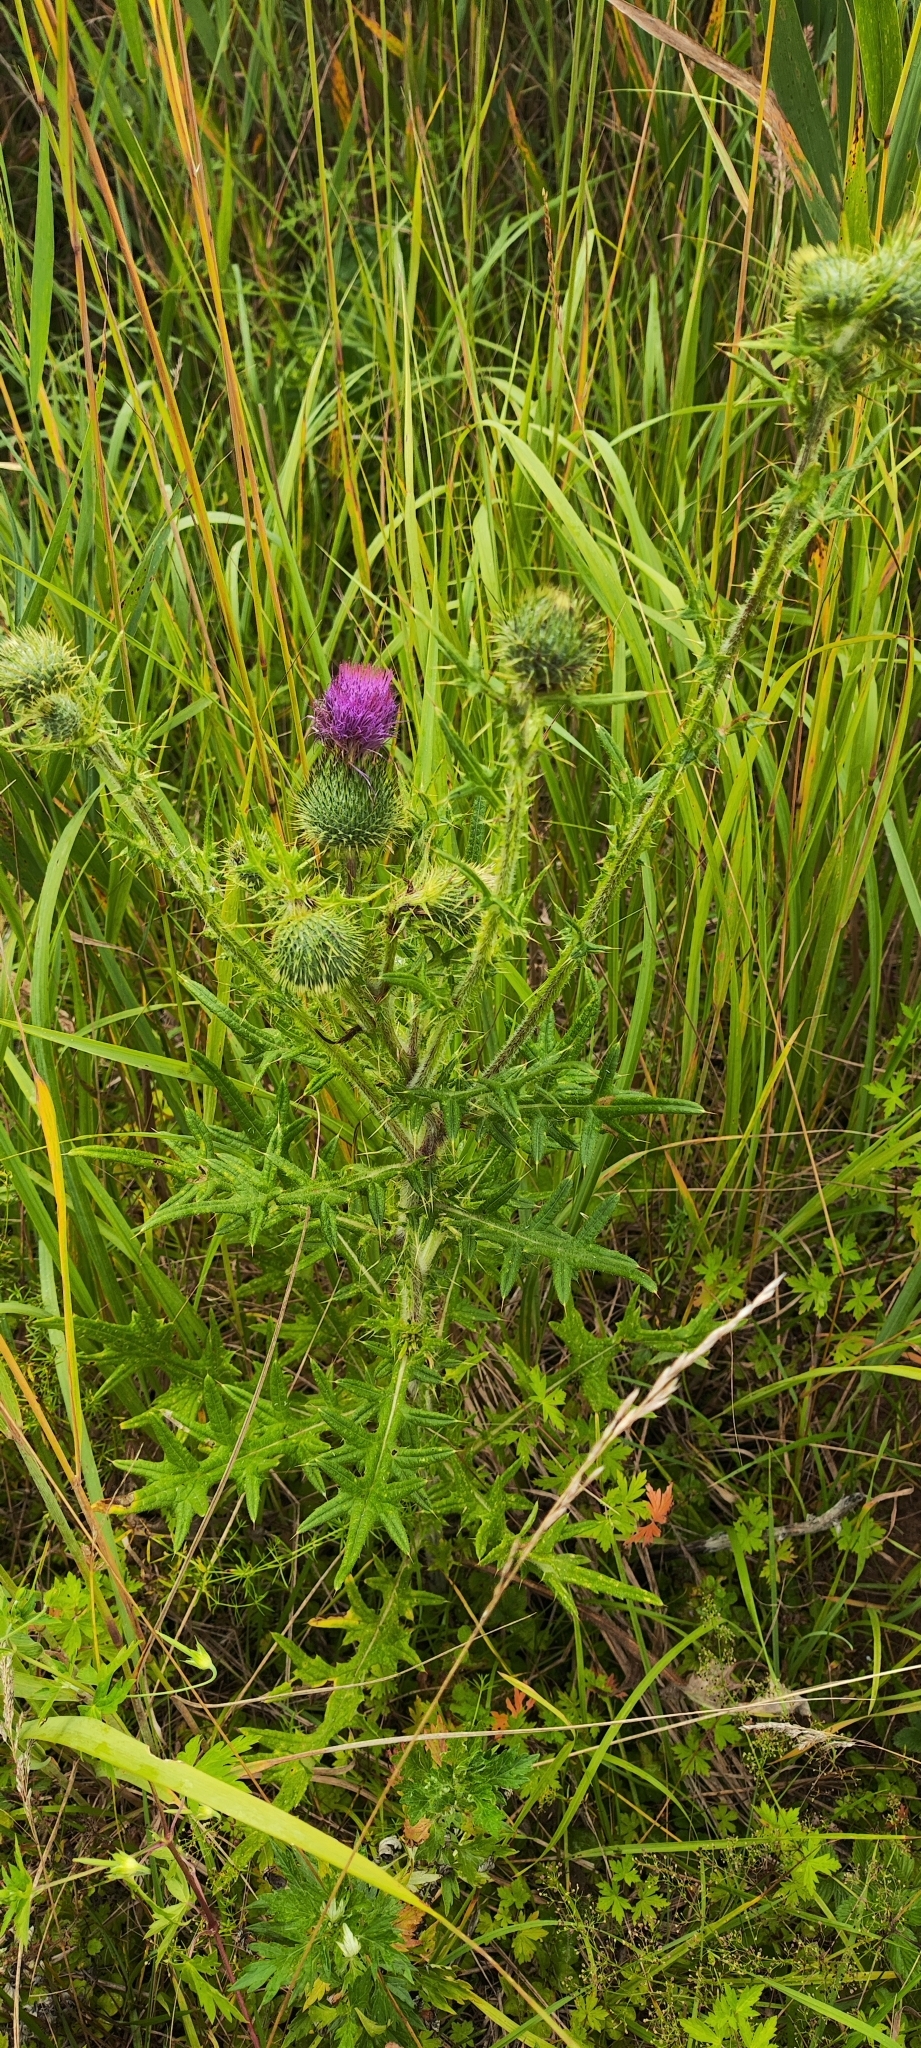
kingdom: Plantae
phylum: Tracheophyta
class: Magnoliopsida
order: Asterales
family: Asteraceae
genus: Cirsium
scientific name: Cirsium vulgare
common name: Bull thistle
